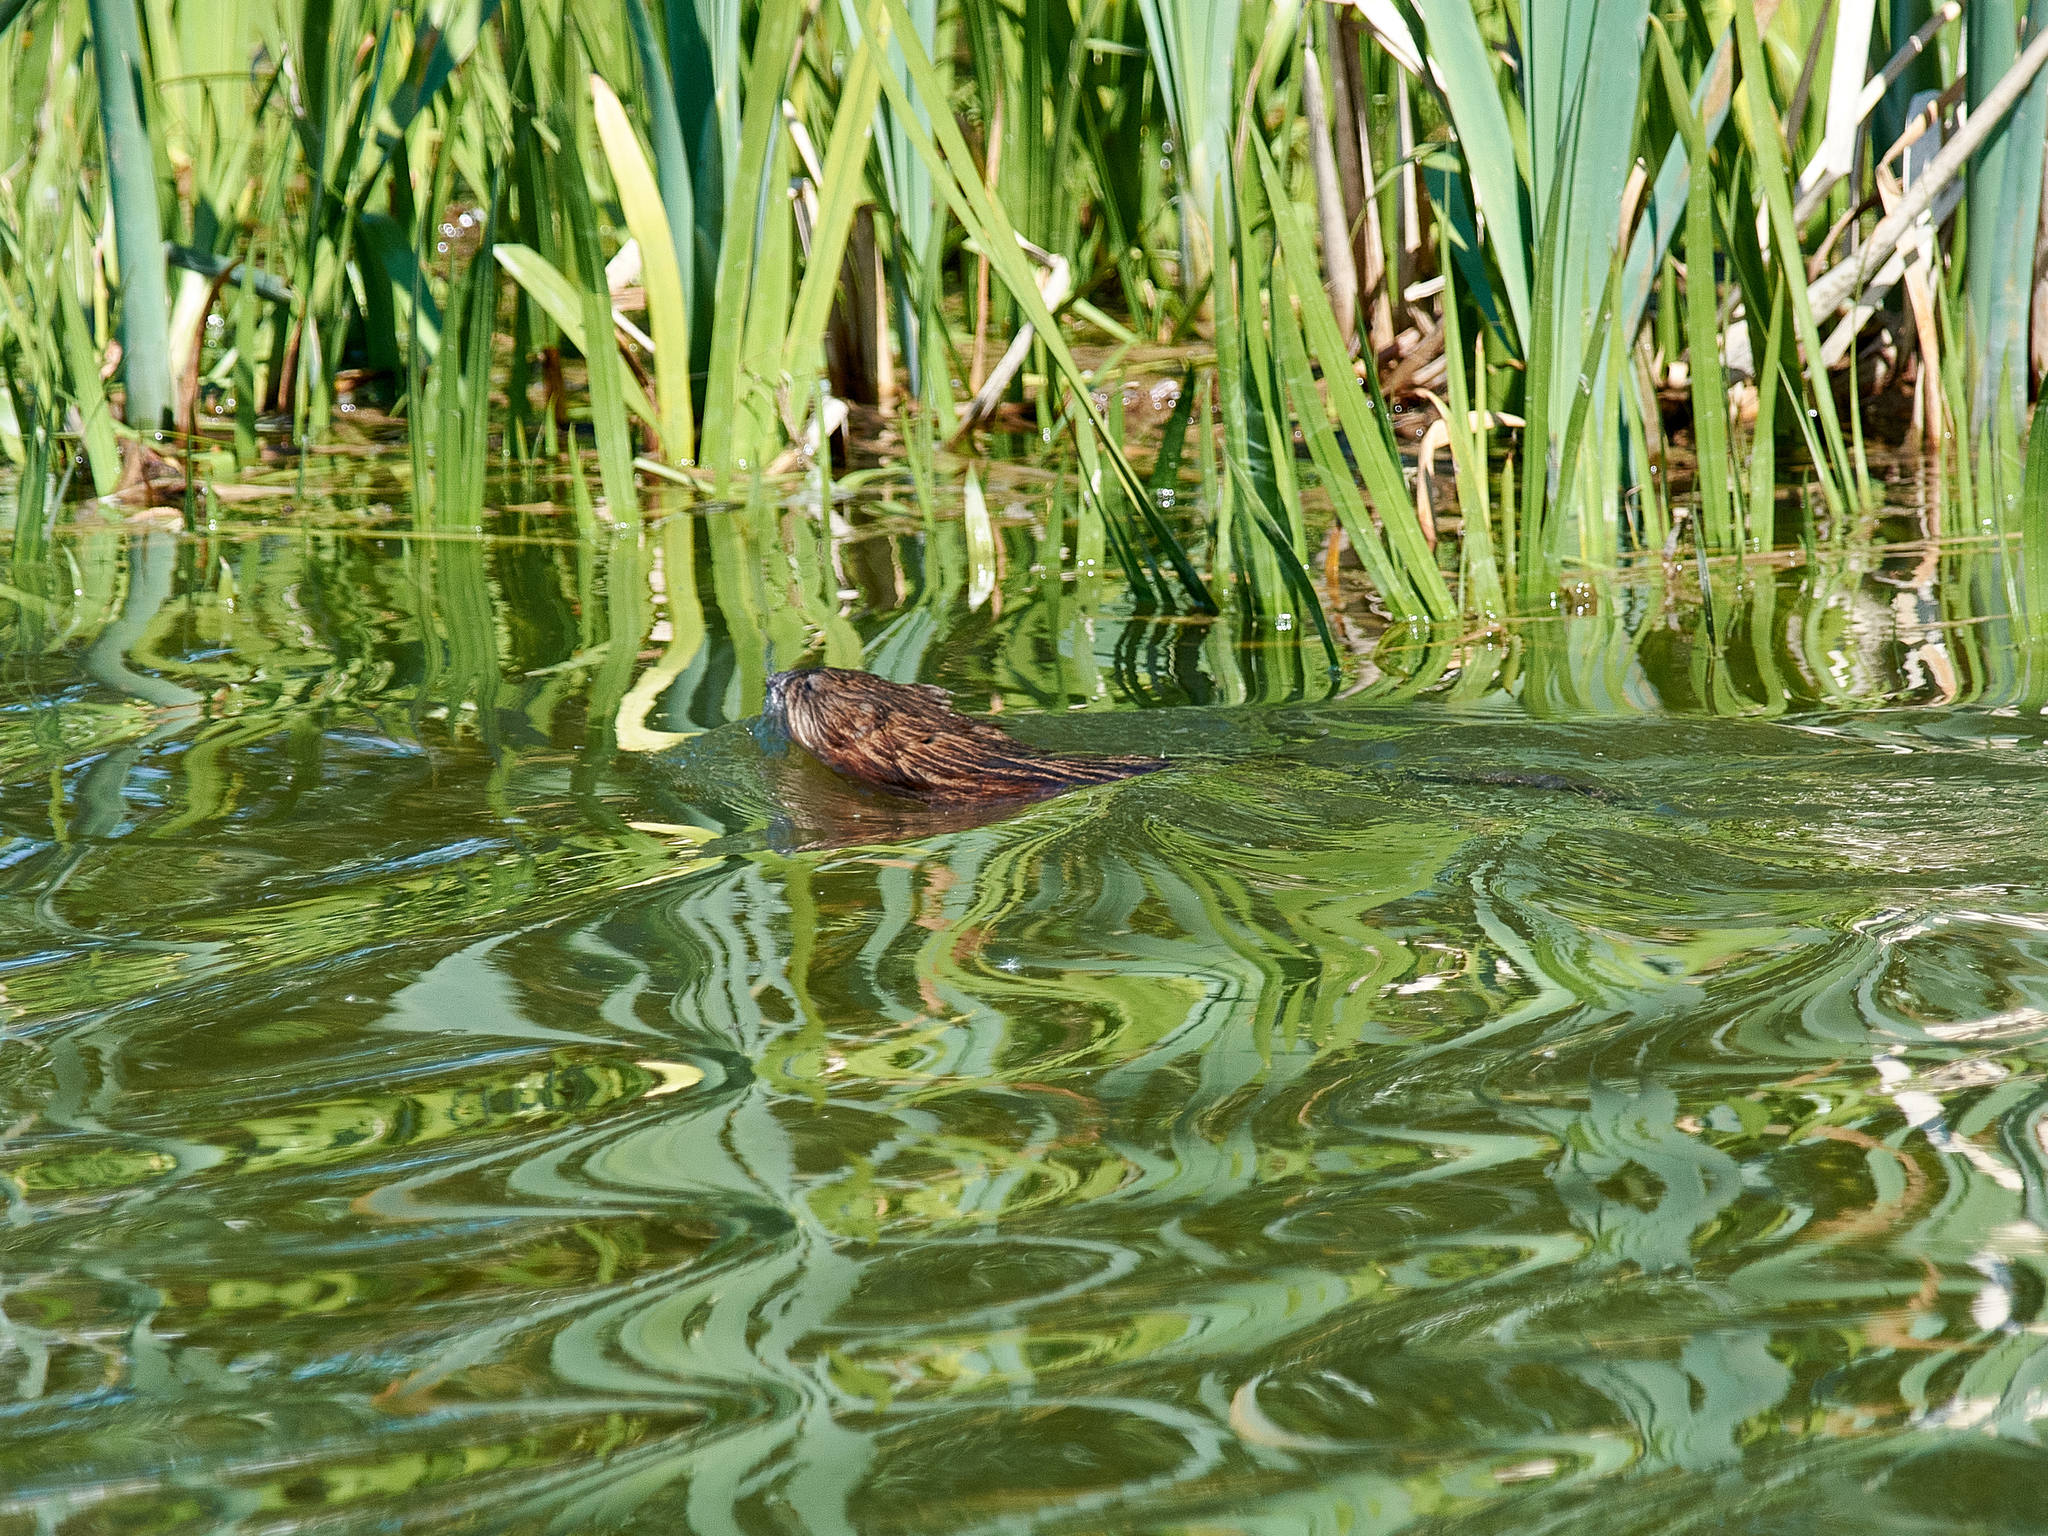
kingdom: Animalia
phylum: Chordata
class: Mammalia
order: Rodentia
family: Cricetidae
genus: Ondatra
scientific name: Ondatra zibethicus
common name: Muskrat
